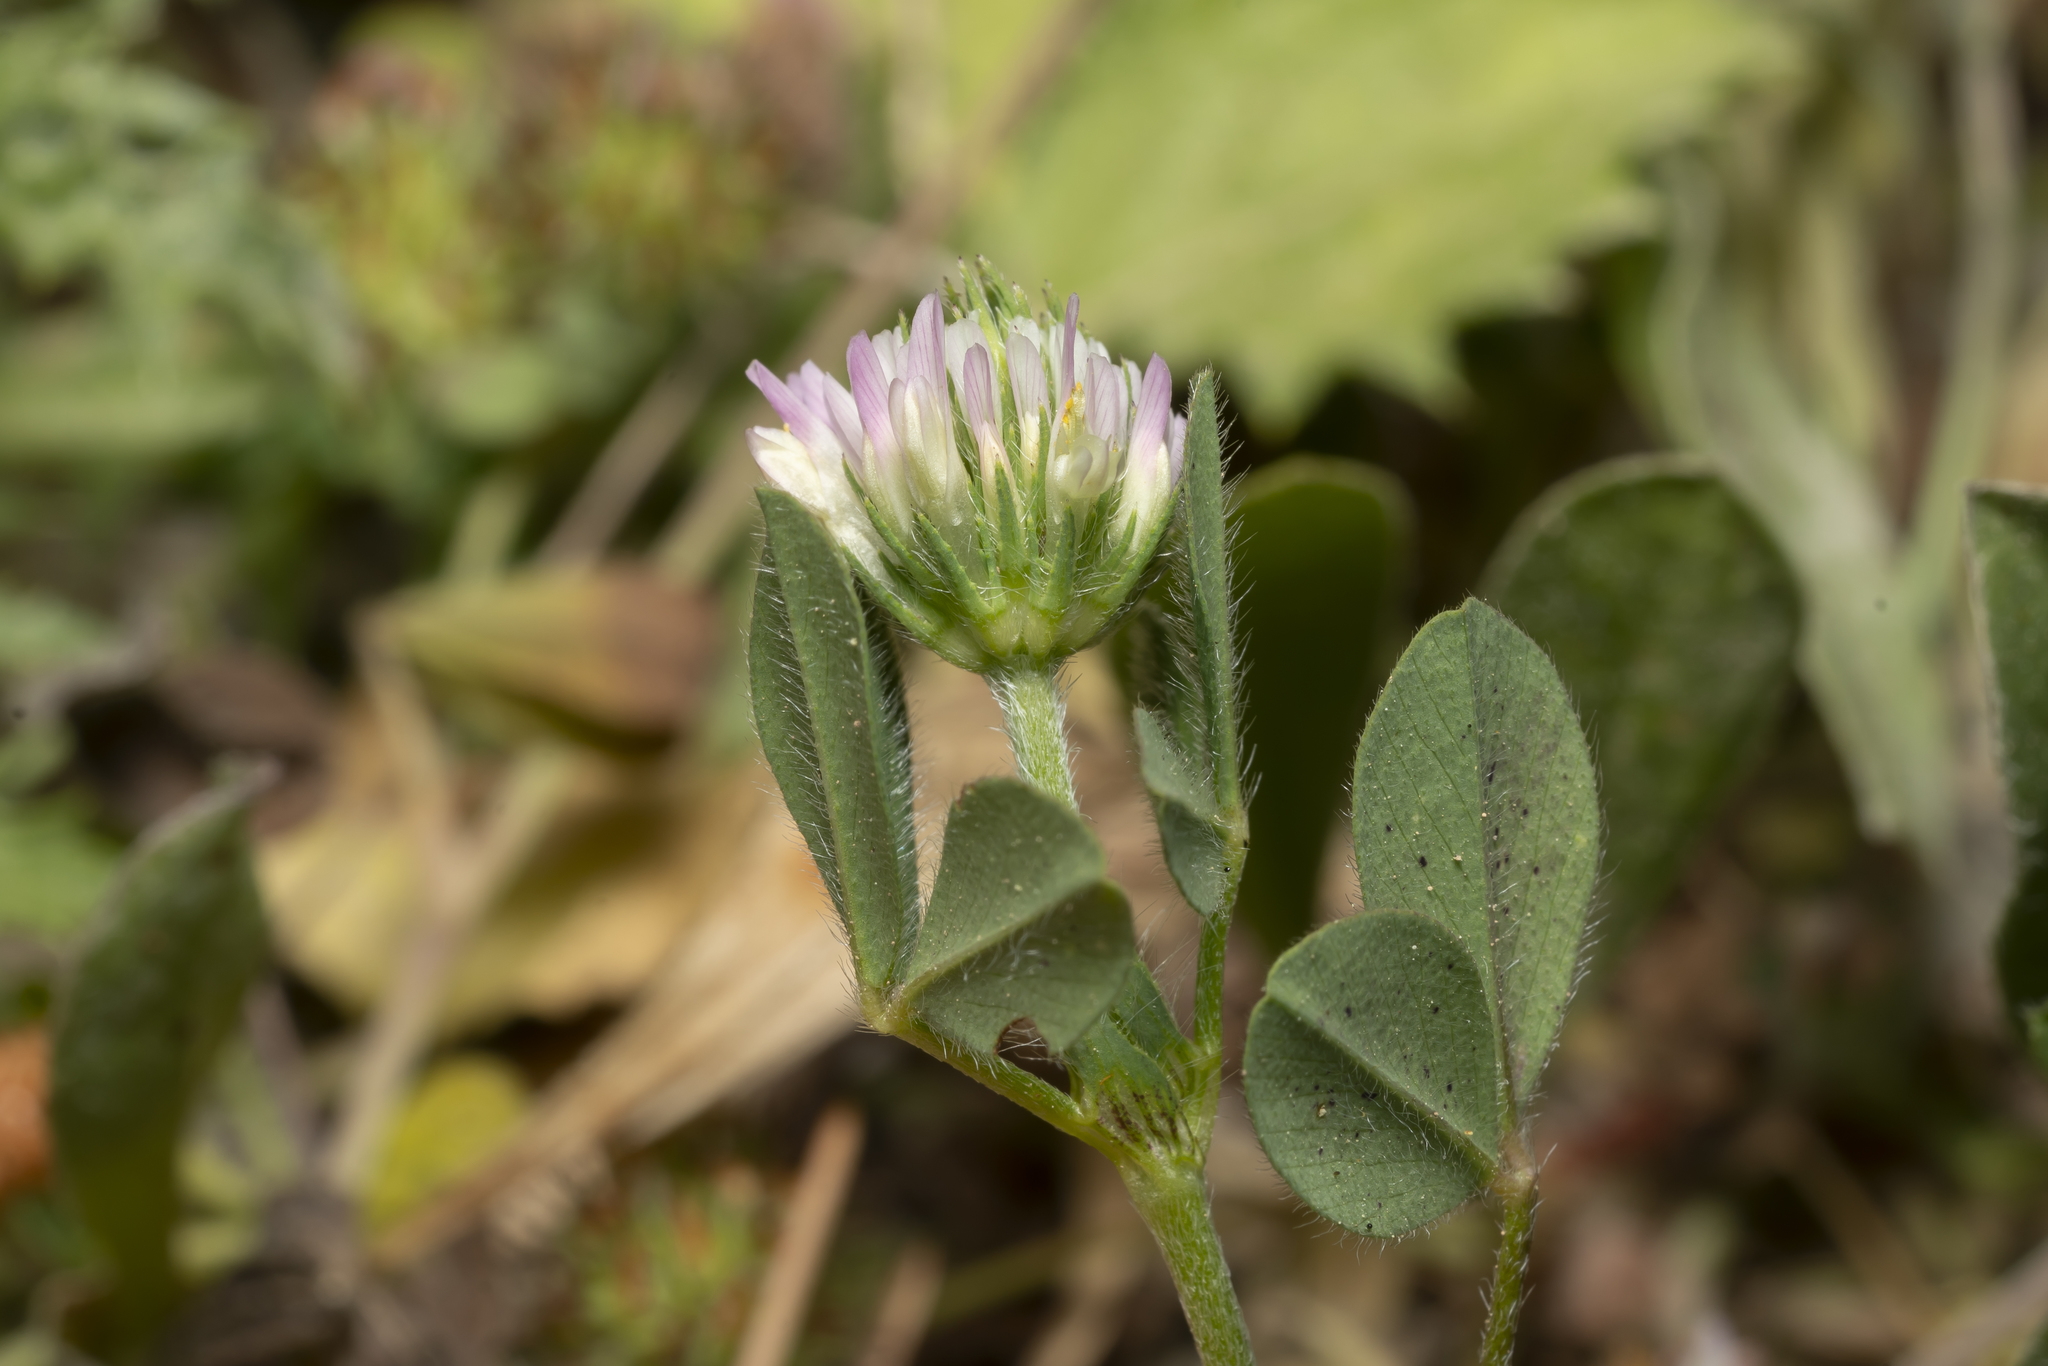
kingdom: Plantae
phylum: Tracheophyta
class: Magnoliopsida
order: Fabales
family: Fabaceae
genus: Trifolium
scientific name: Trifolium echinatum
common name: Hedgehog clover
